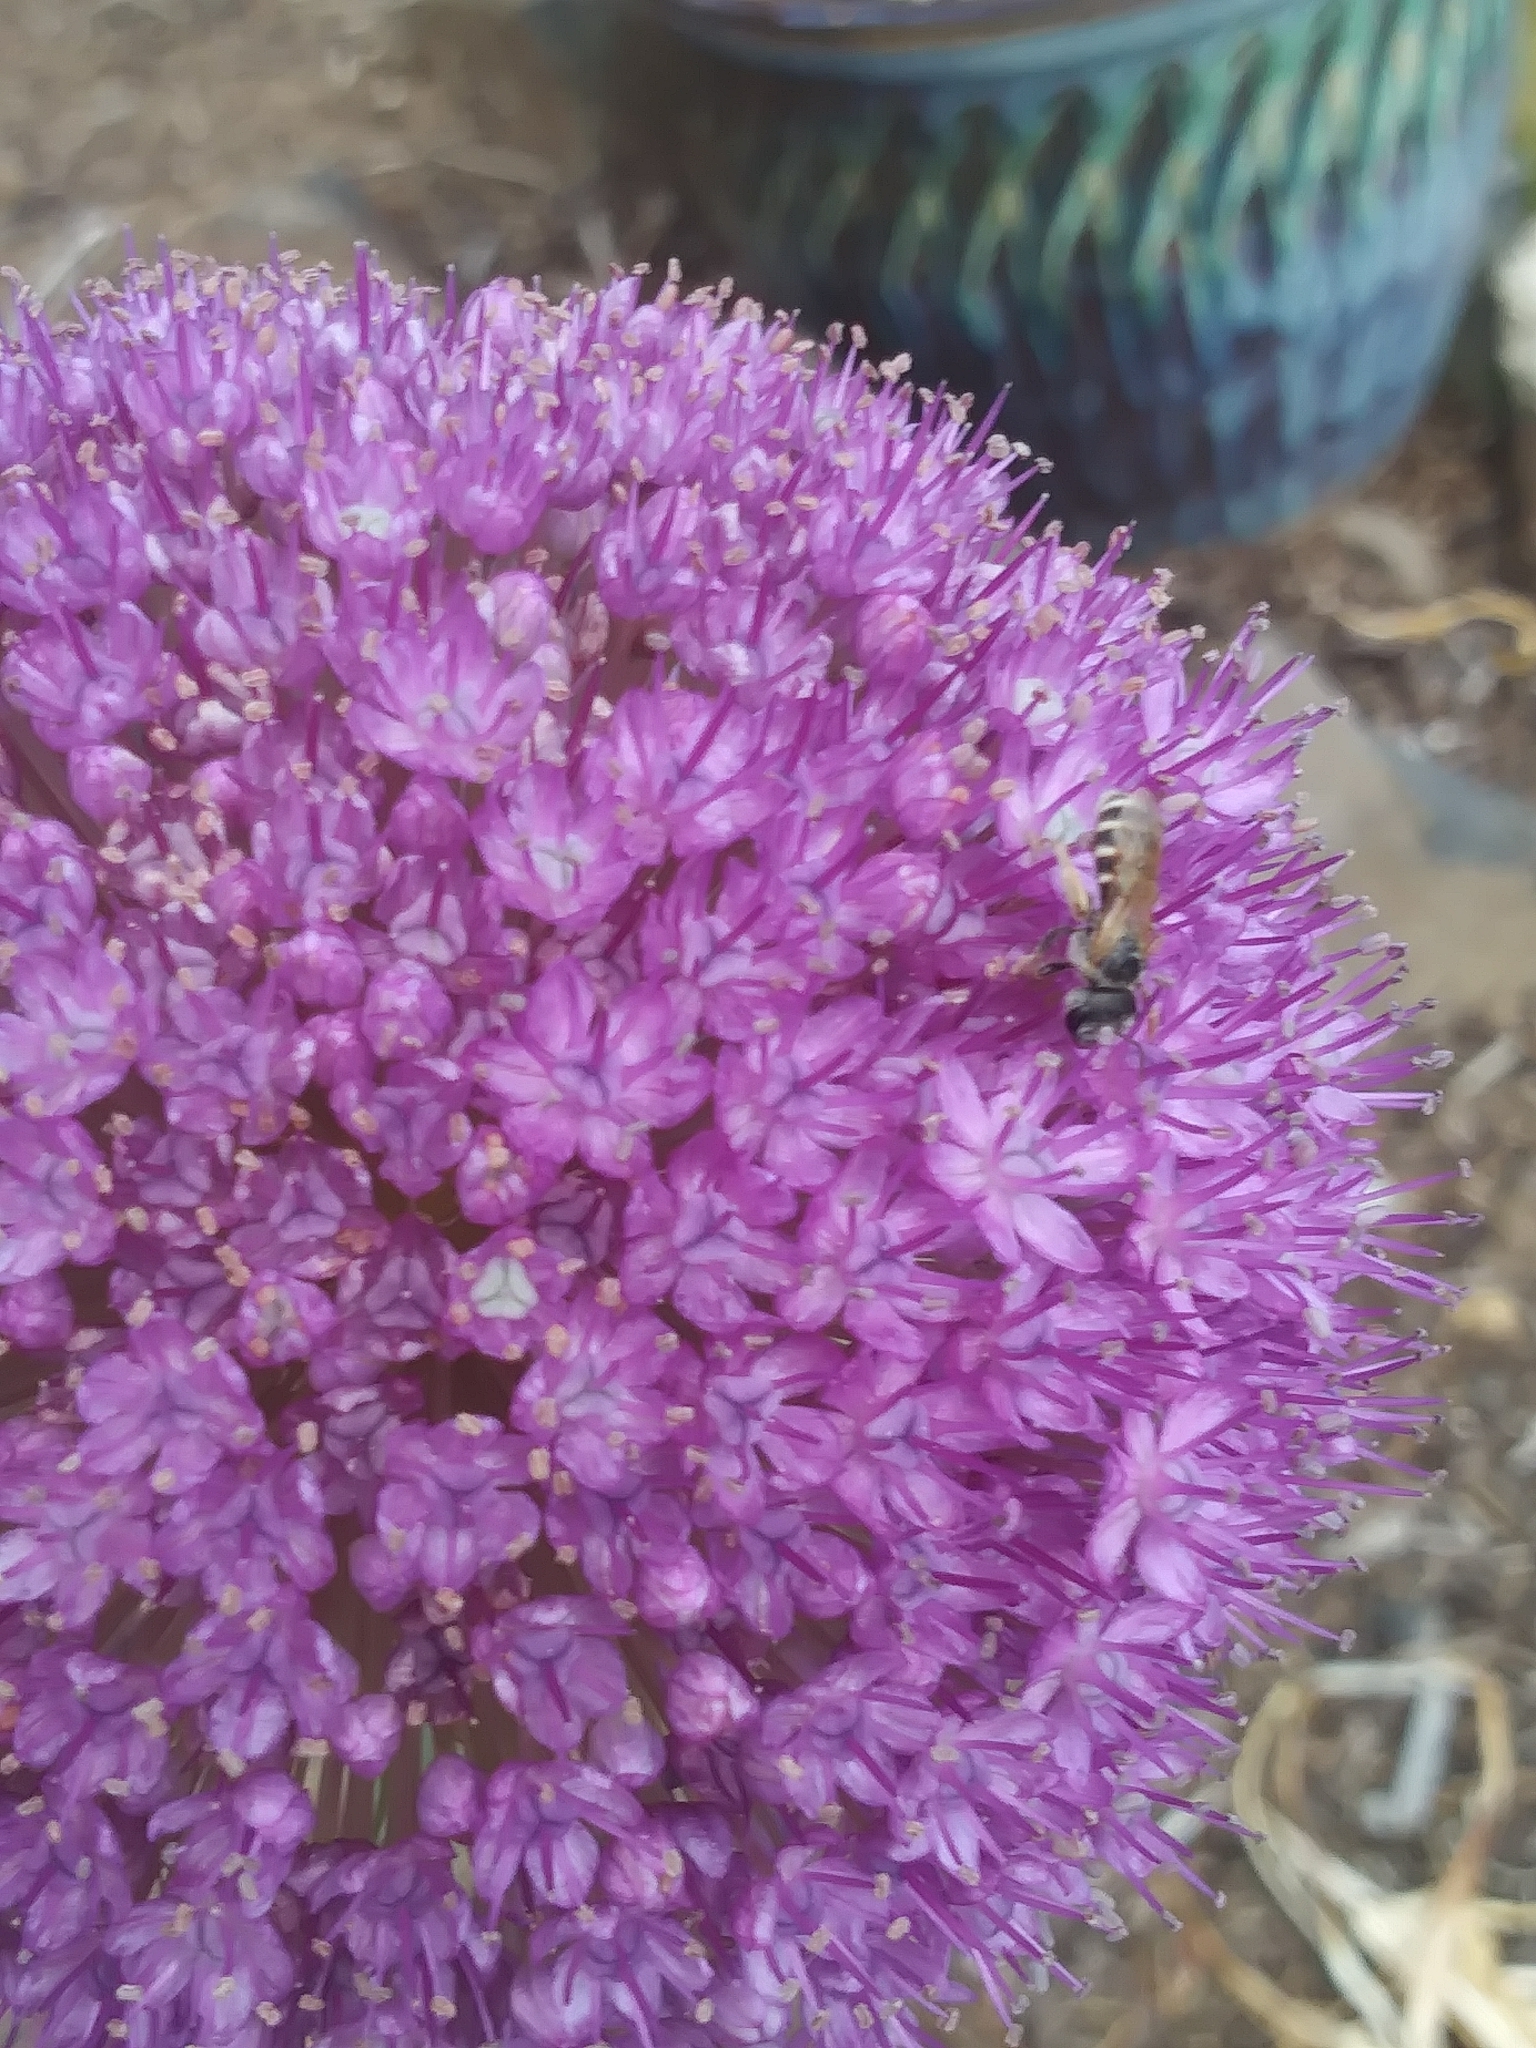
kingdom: Animalia
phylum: Arthropoda
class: Insecta
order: Hymenoptera
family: Halictidae
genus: Halictus
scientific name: Halictus ligatus
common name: Ligated furrow bee
